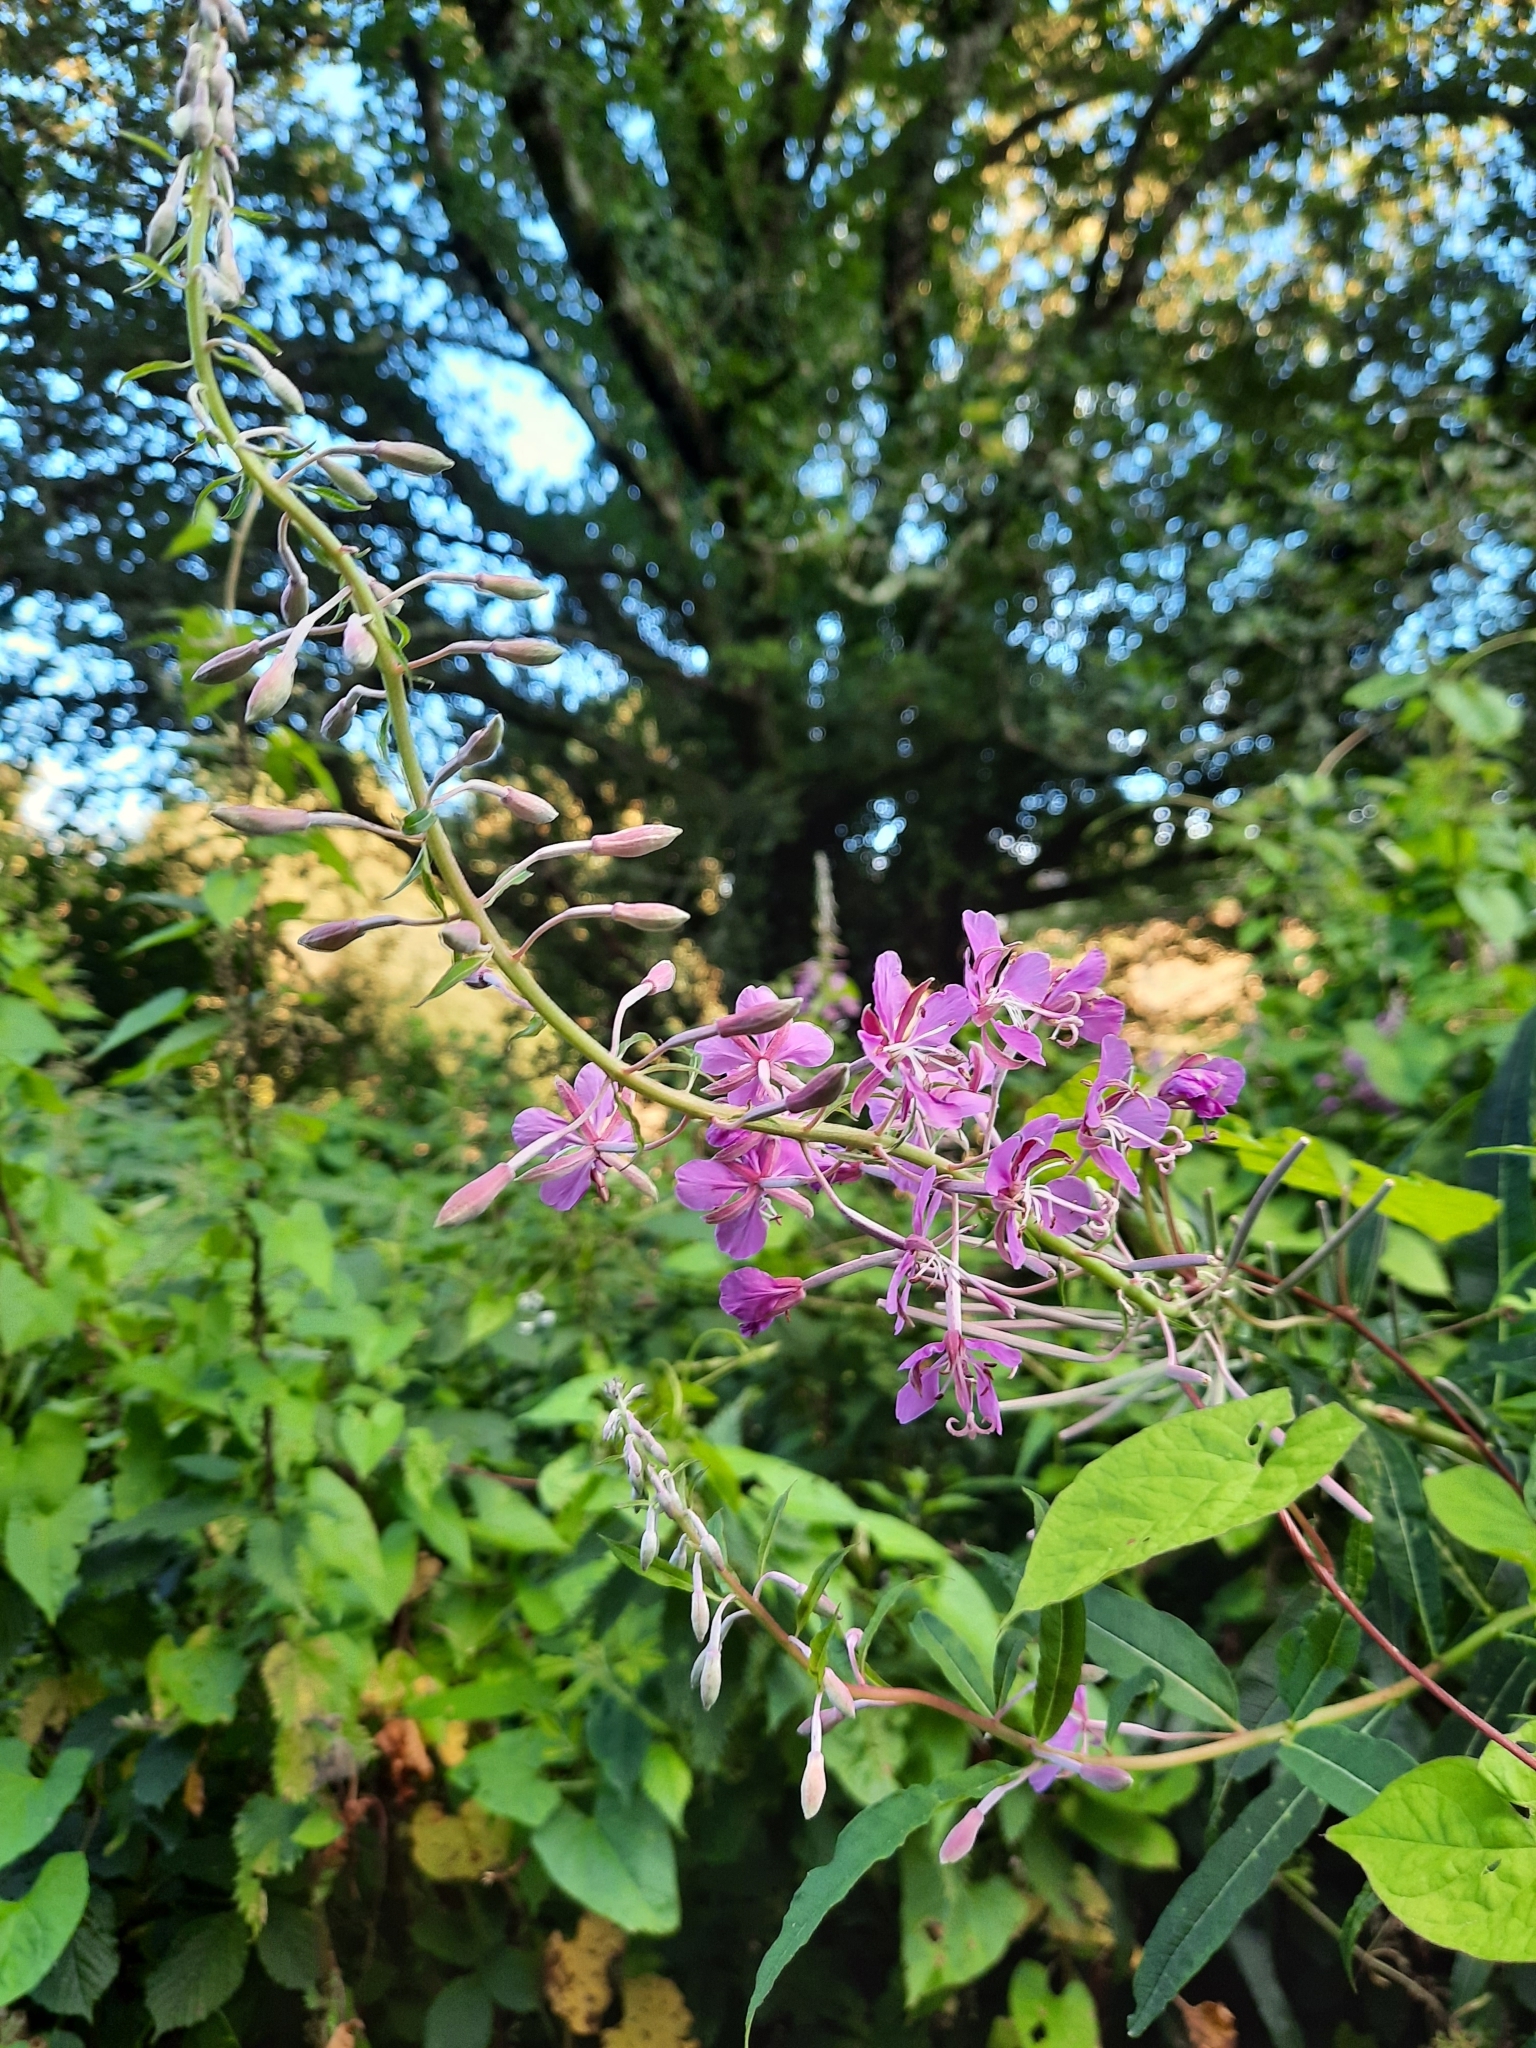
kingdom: Plantae
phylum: Tracheophyta
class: Magnoliopsida
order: Myrtales
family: Onagraceae
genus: Chamaenerion
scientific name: Chamaenerion angustifolium
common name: Fireweed
